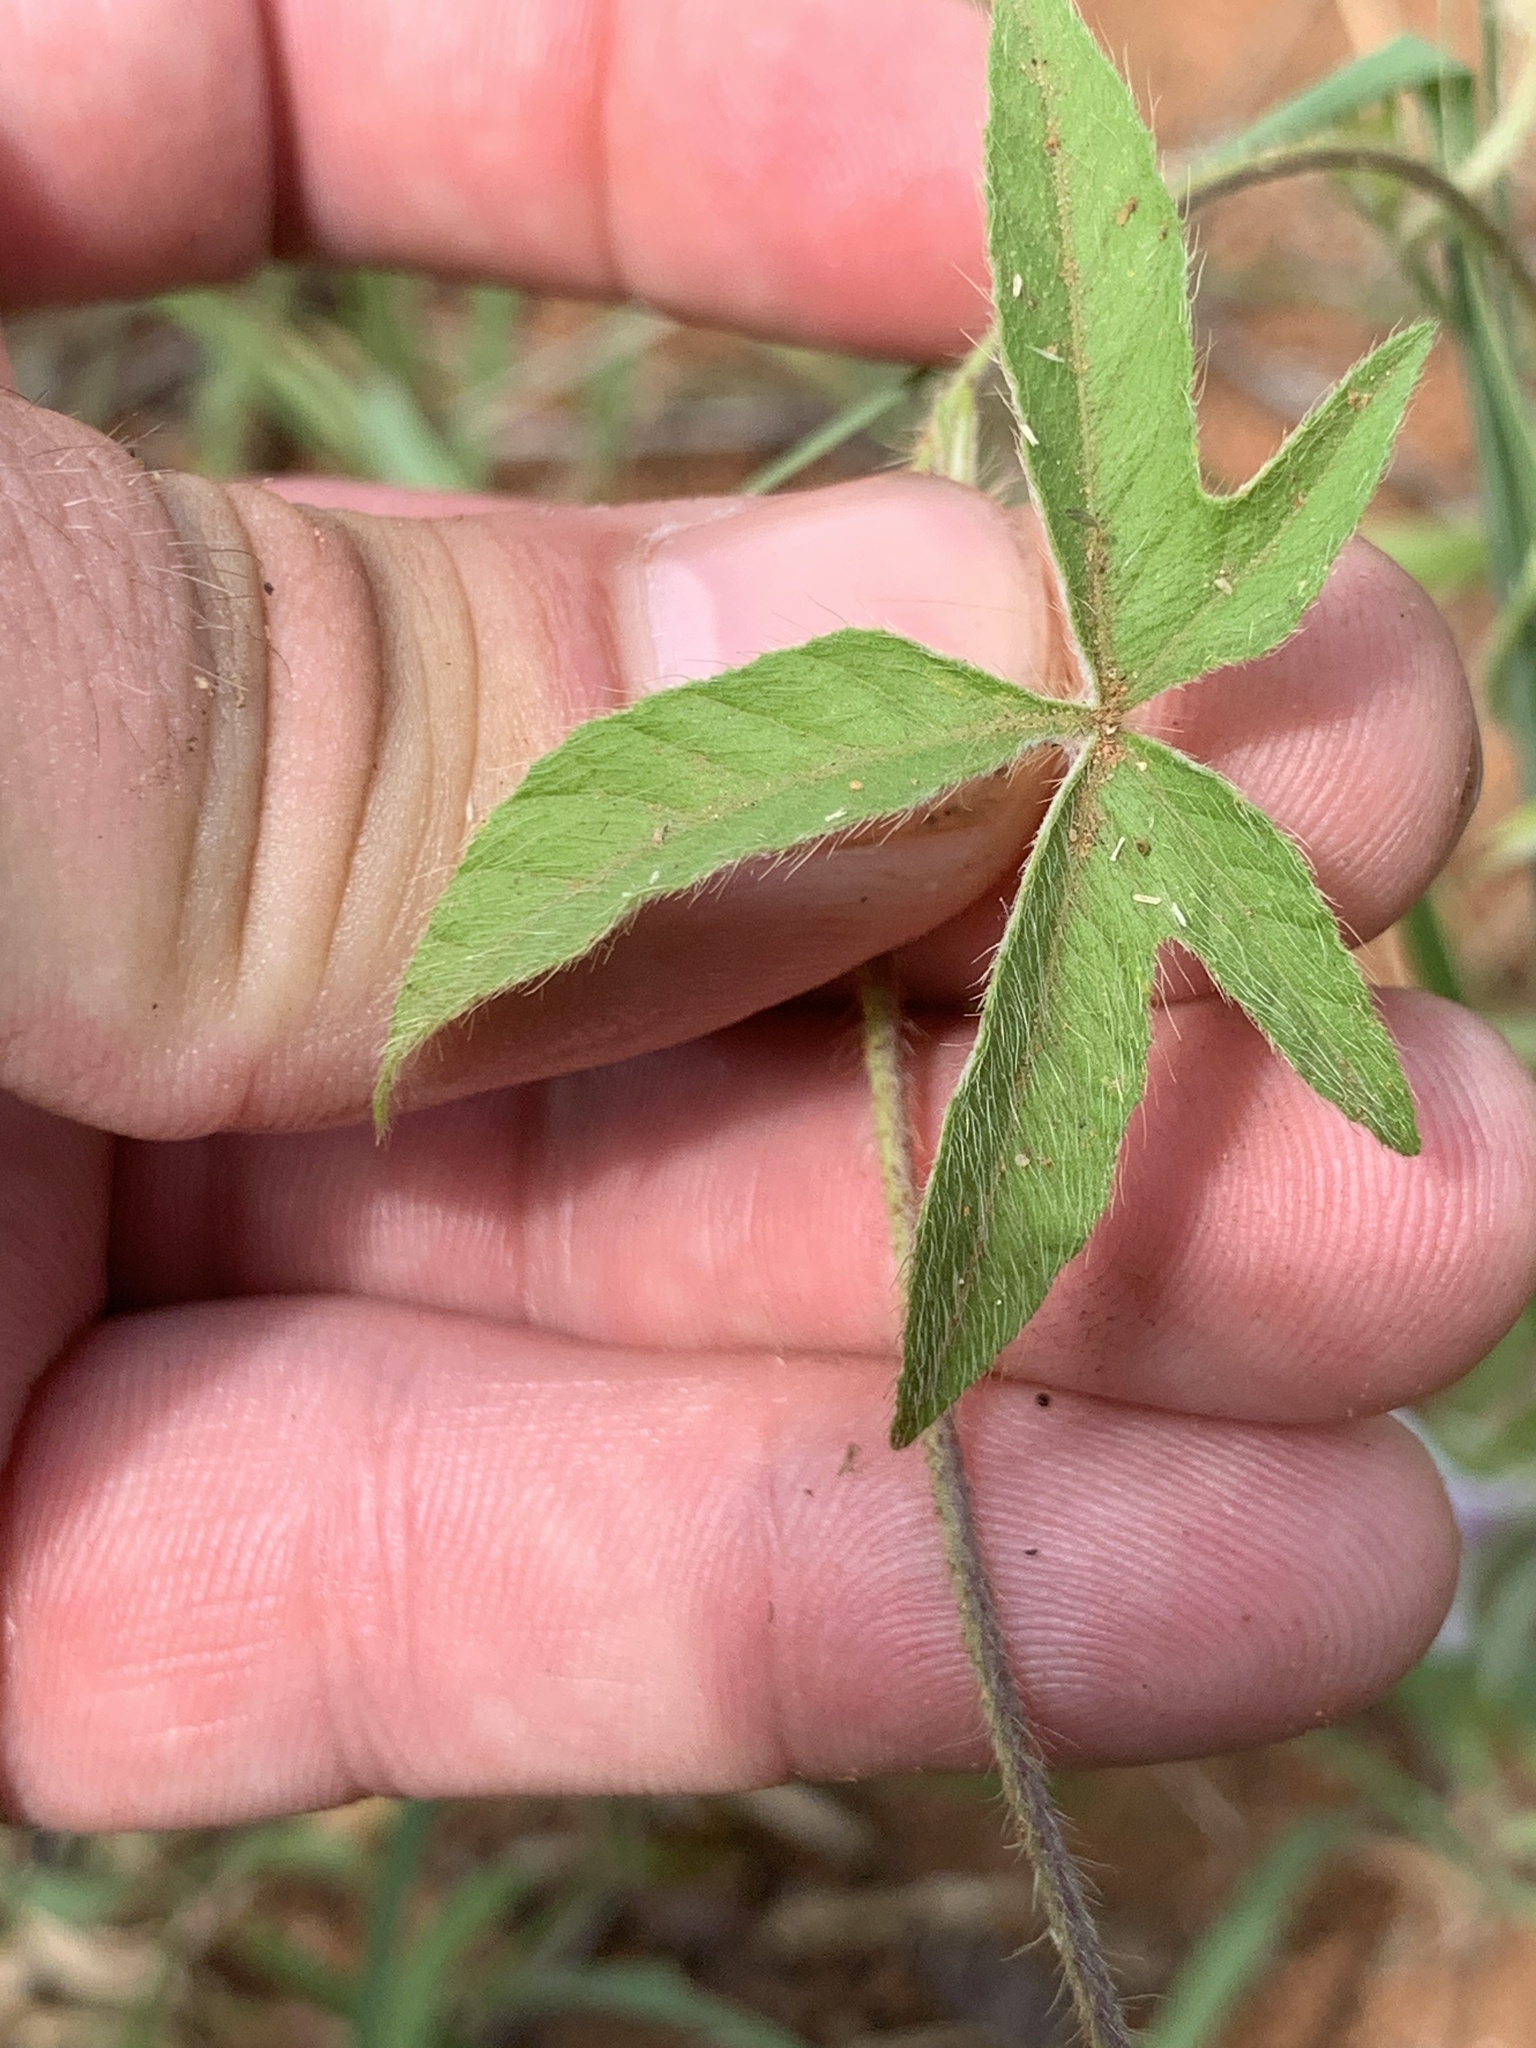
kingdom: Plantae
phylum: Tracheophyta
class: Magnoliopsida
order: Solanales
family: Convolvulaceae
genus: Ipomoea
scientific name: Ipomoea magnusiana
